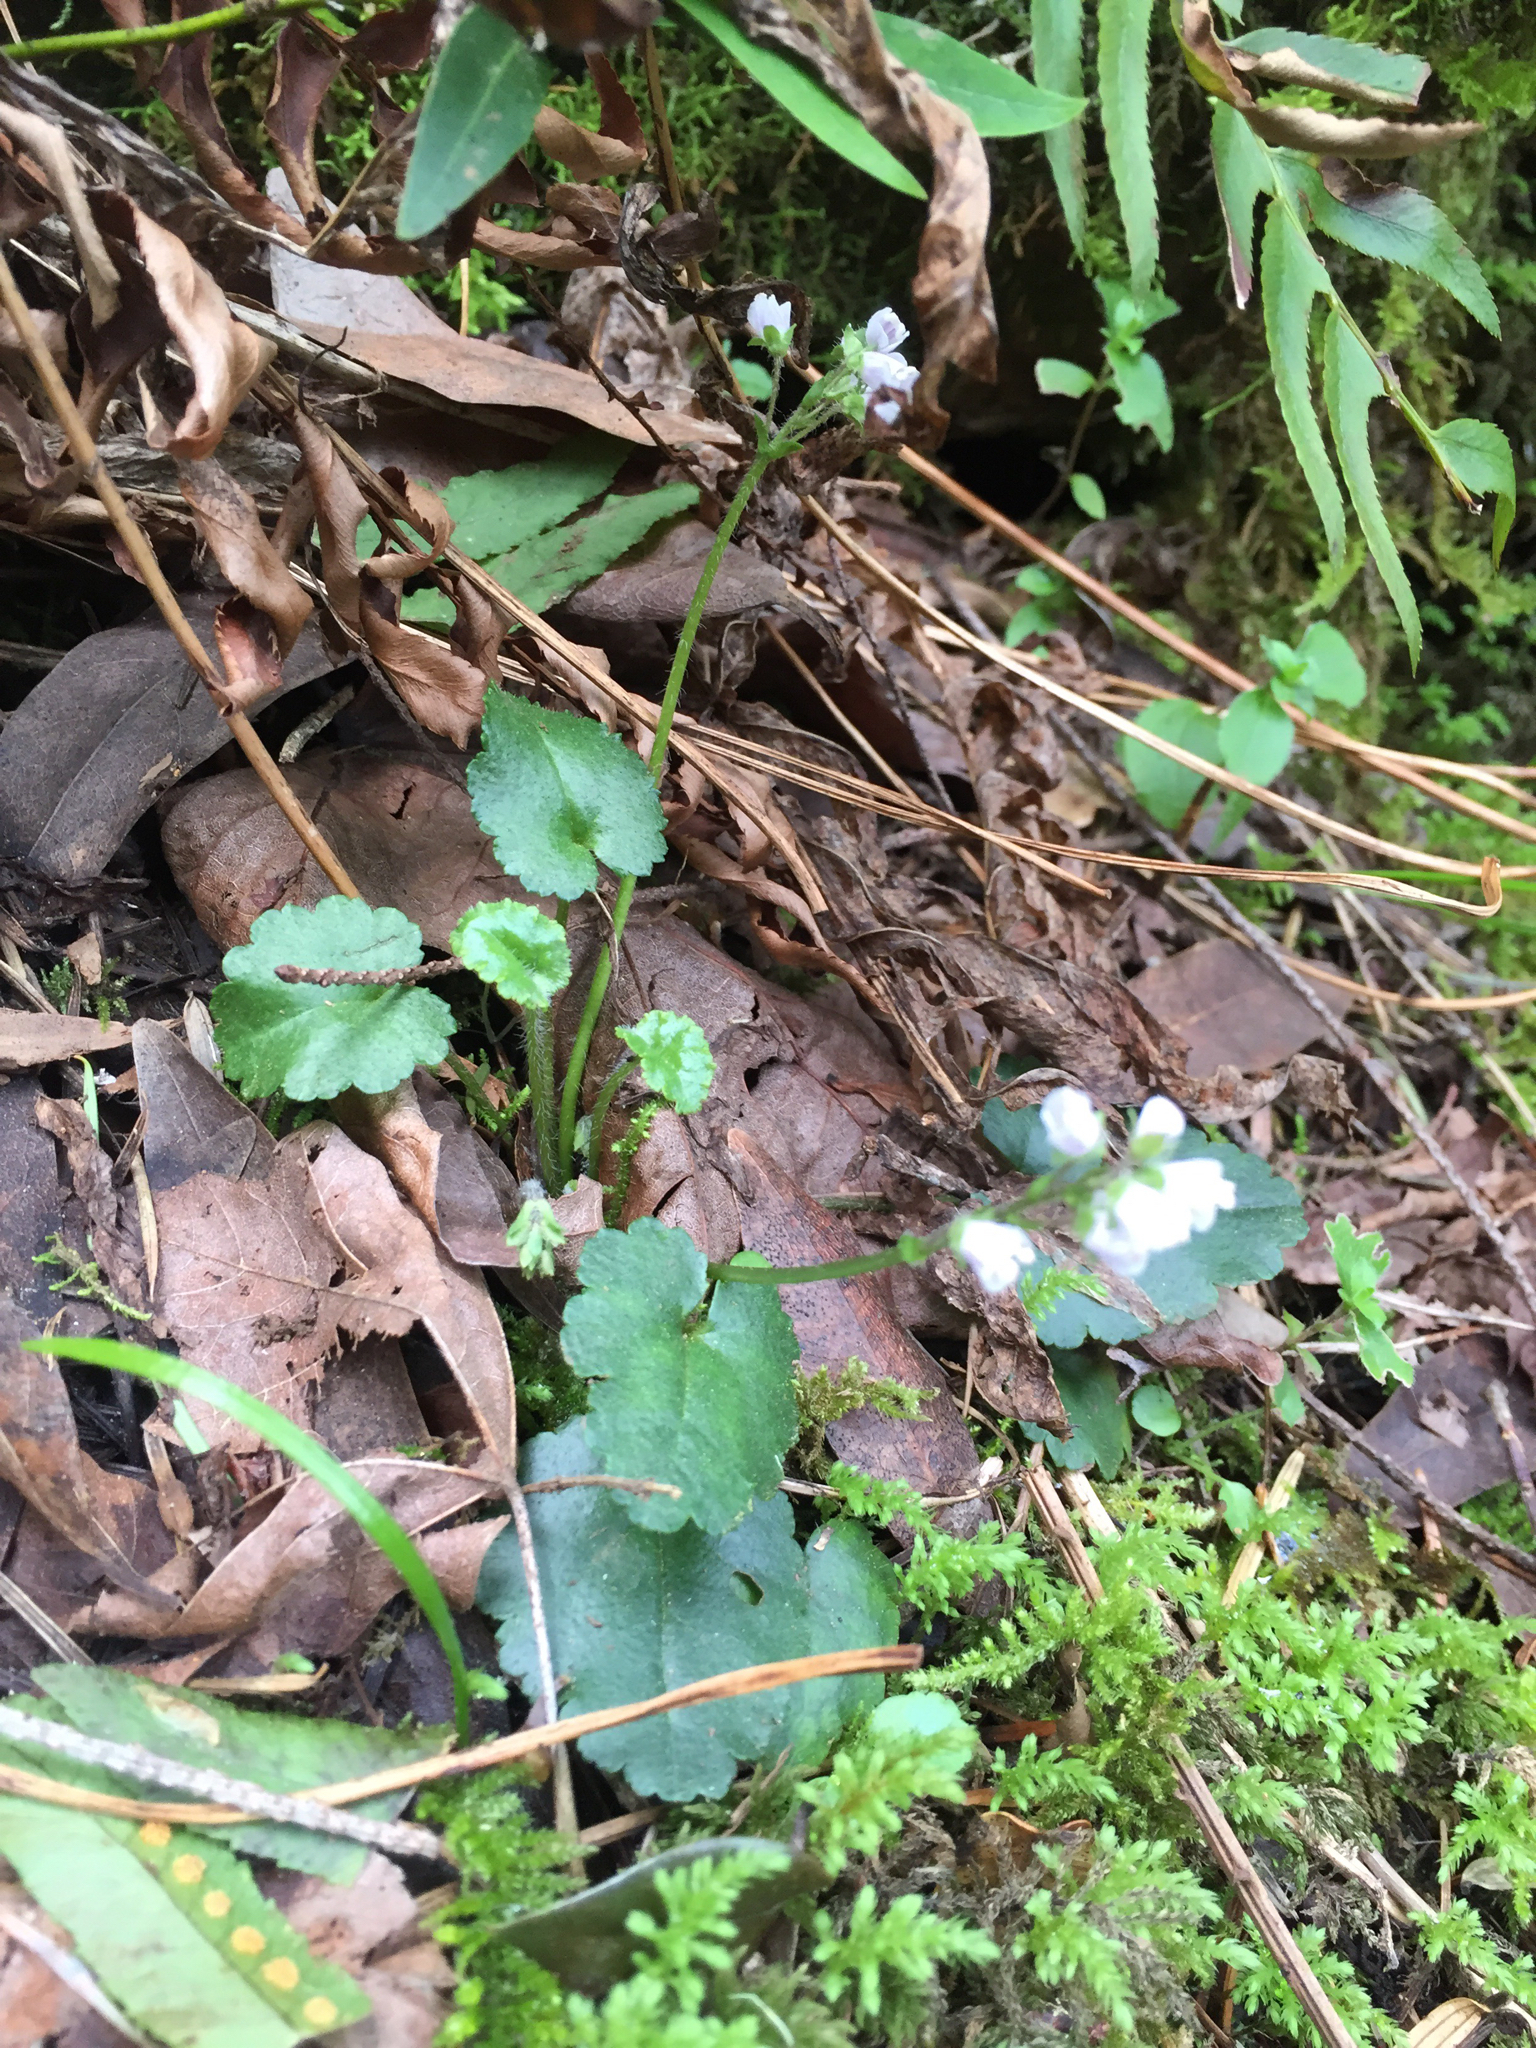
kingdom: Plantae
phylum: Tracheophyta
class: Magnoliopsida
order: Lamiales
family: Plantaginaceae
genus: Synthyris
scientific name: Synthyris cordata
